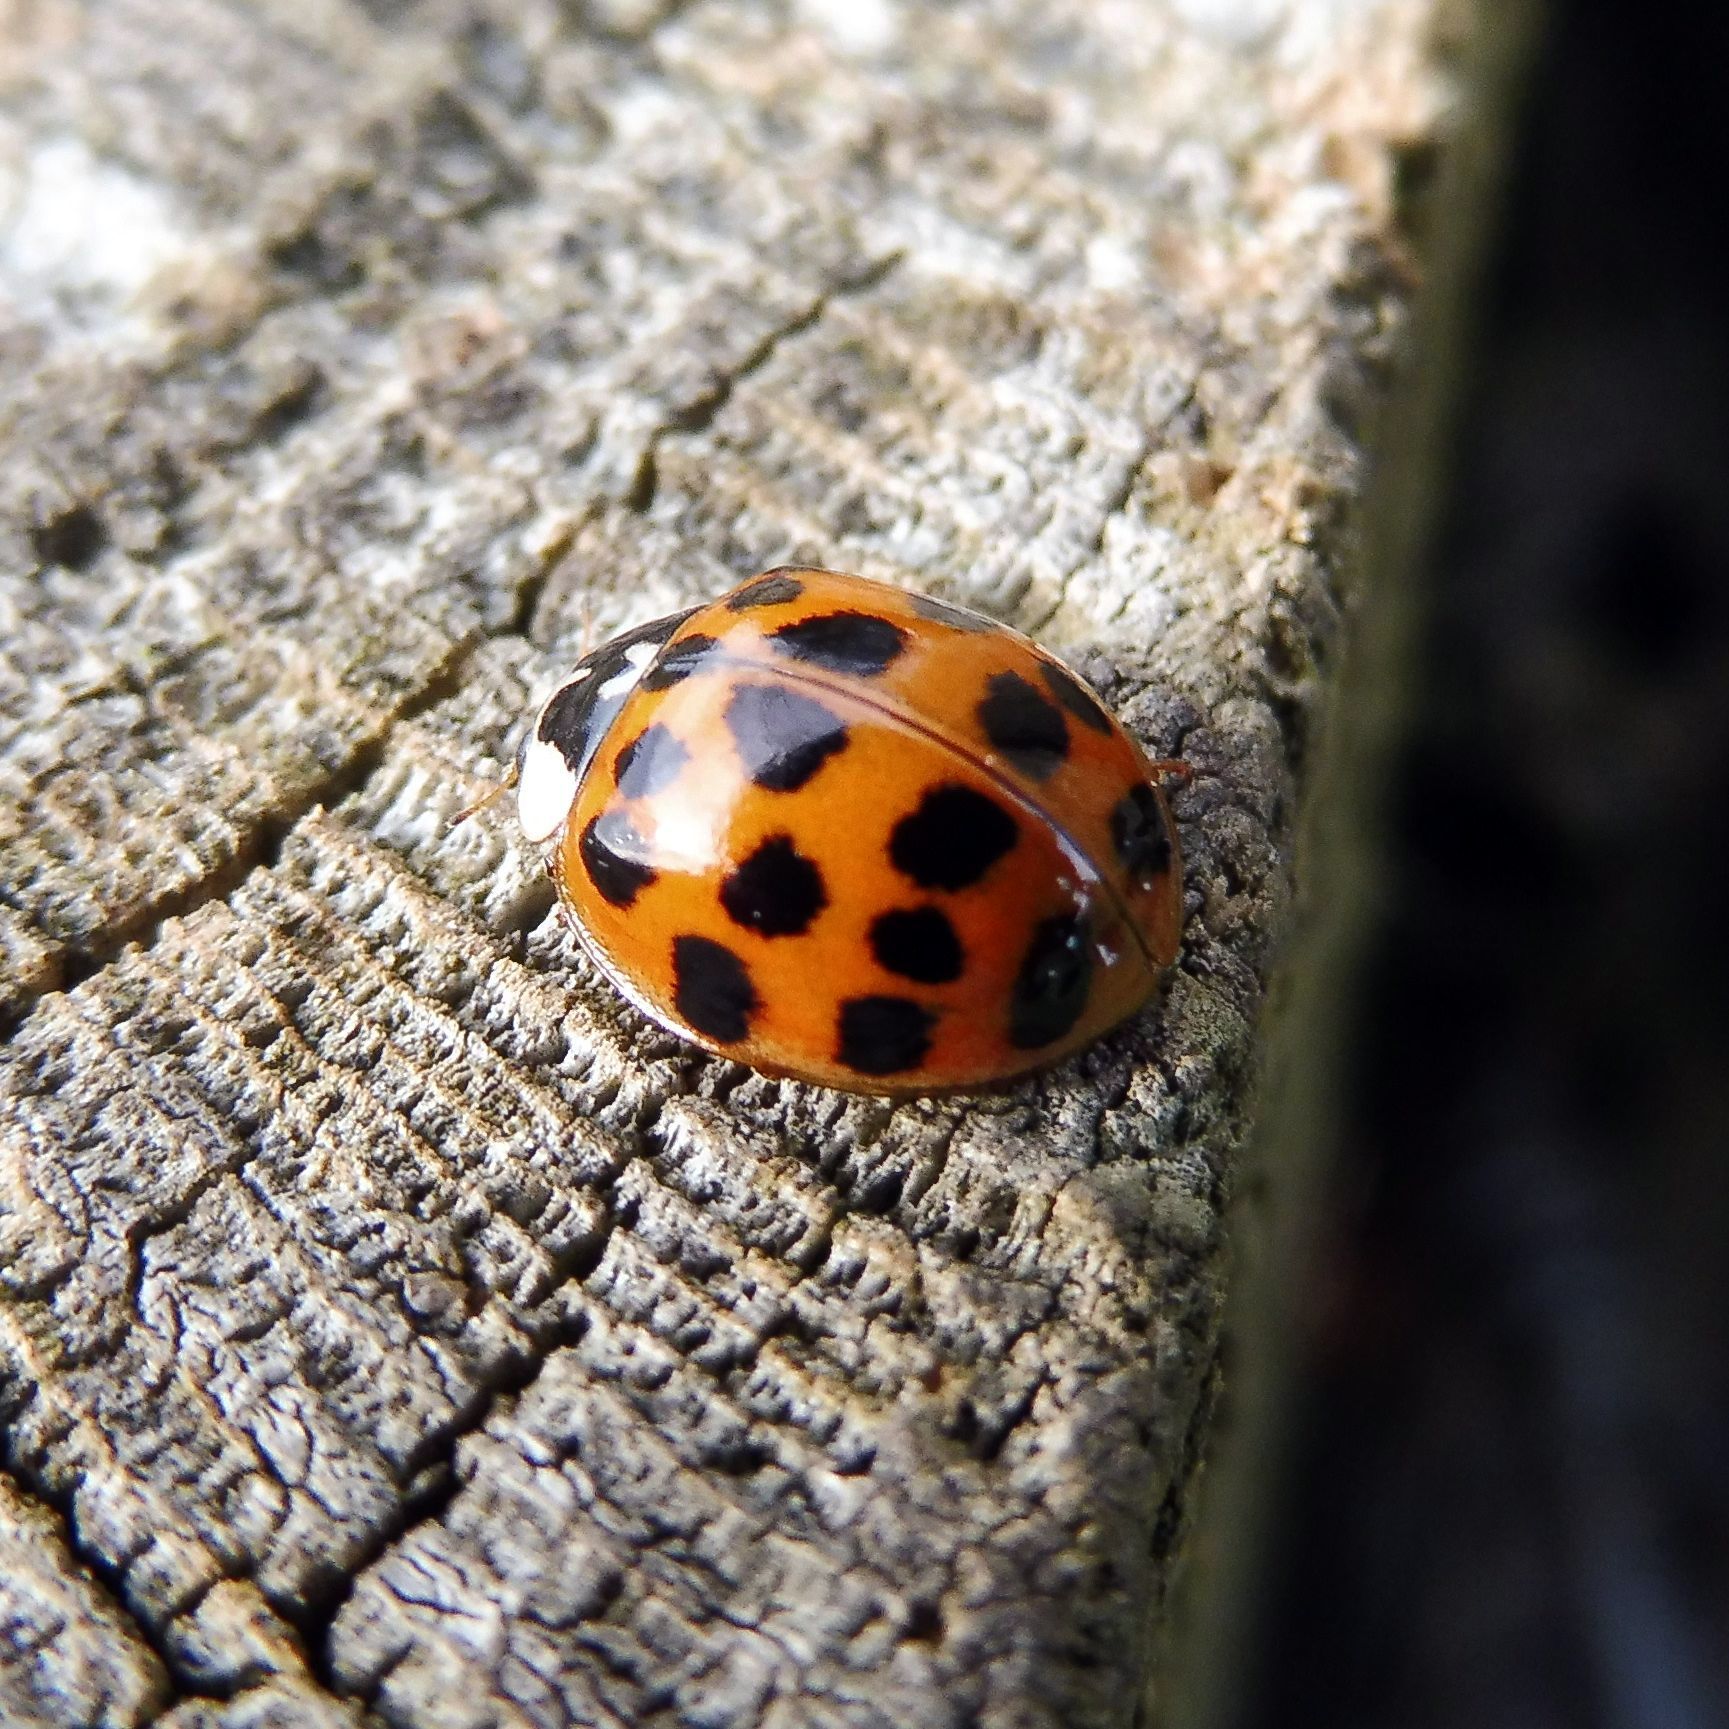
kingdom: Animalia
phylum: Arthropoda
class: Insecta
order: Coleoptera
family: Coccinellidae
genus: Harmonia
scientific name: Harmonia axyridis
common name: Harlequin ladybird
